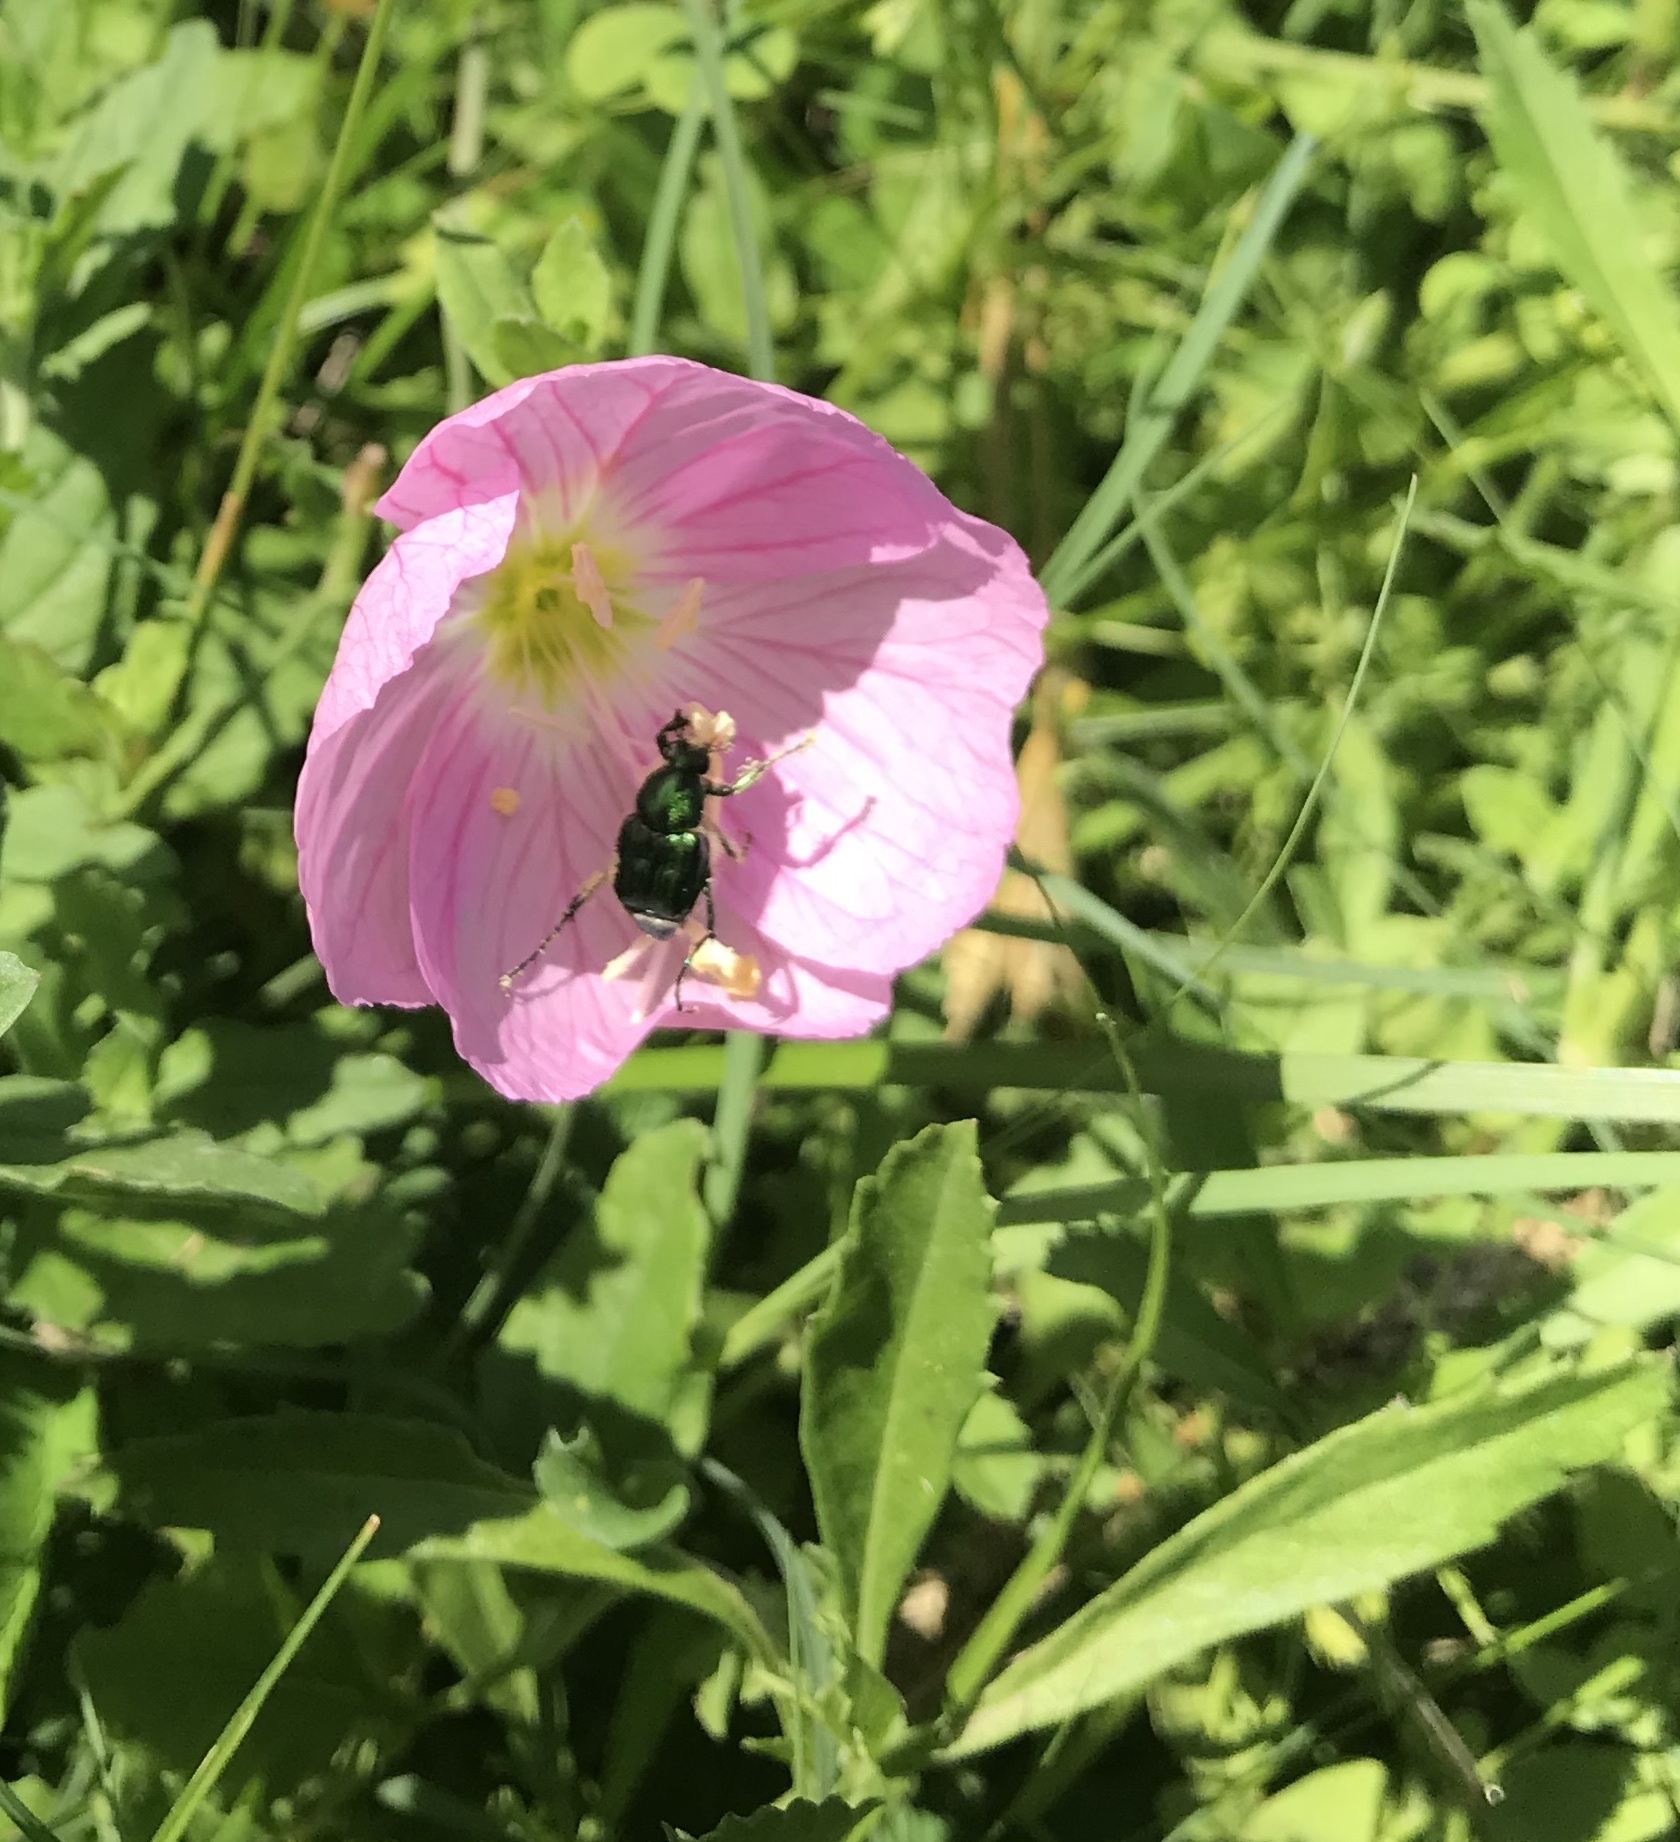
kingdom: Animalia
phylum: Arthropoda
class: Insecta
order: Coleoptera
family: Scarabaeidae
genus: Trichiotinus
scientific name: Trichiotinus lunulatus
